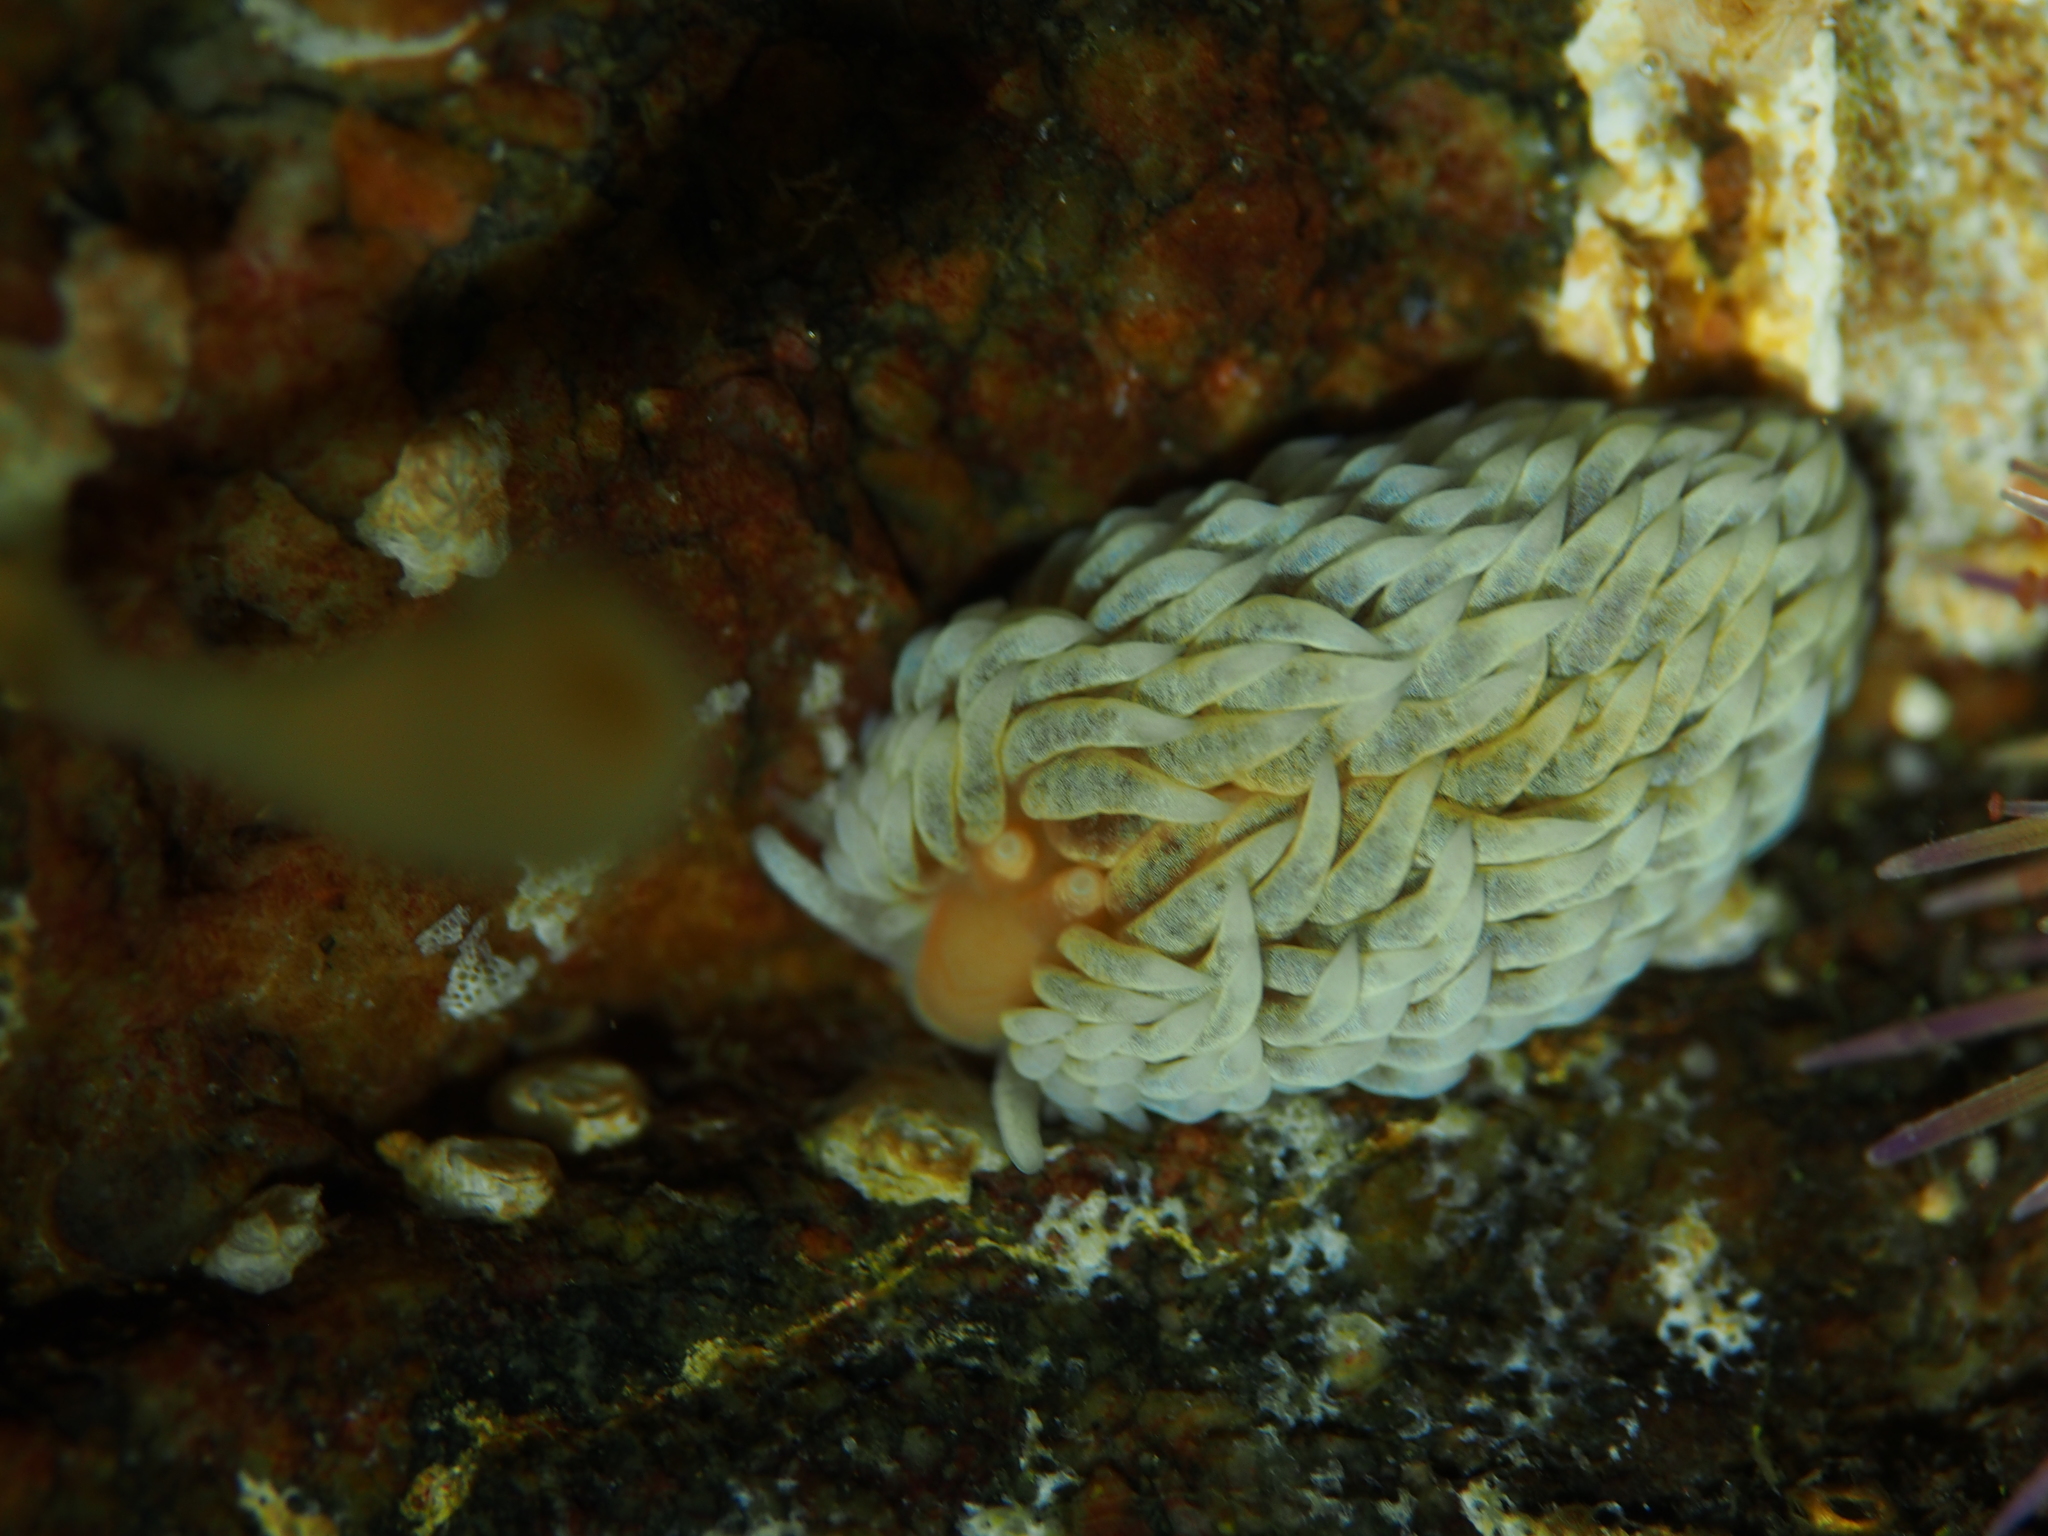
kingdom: Animalia
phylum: Mollusca
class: Gastropoda
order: Nudibranchia
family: Aeolidiidae
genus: Aeolidiella
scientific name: Aeolidiella glauca
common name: Orange-brown aeolid
